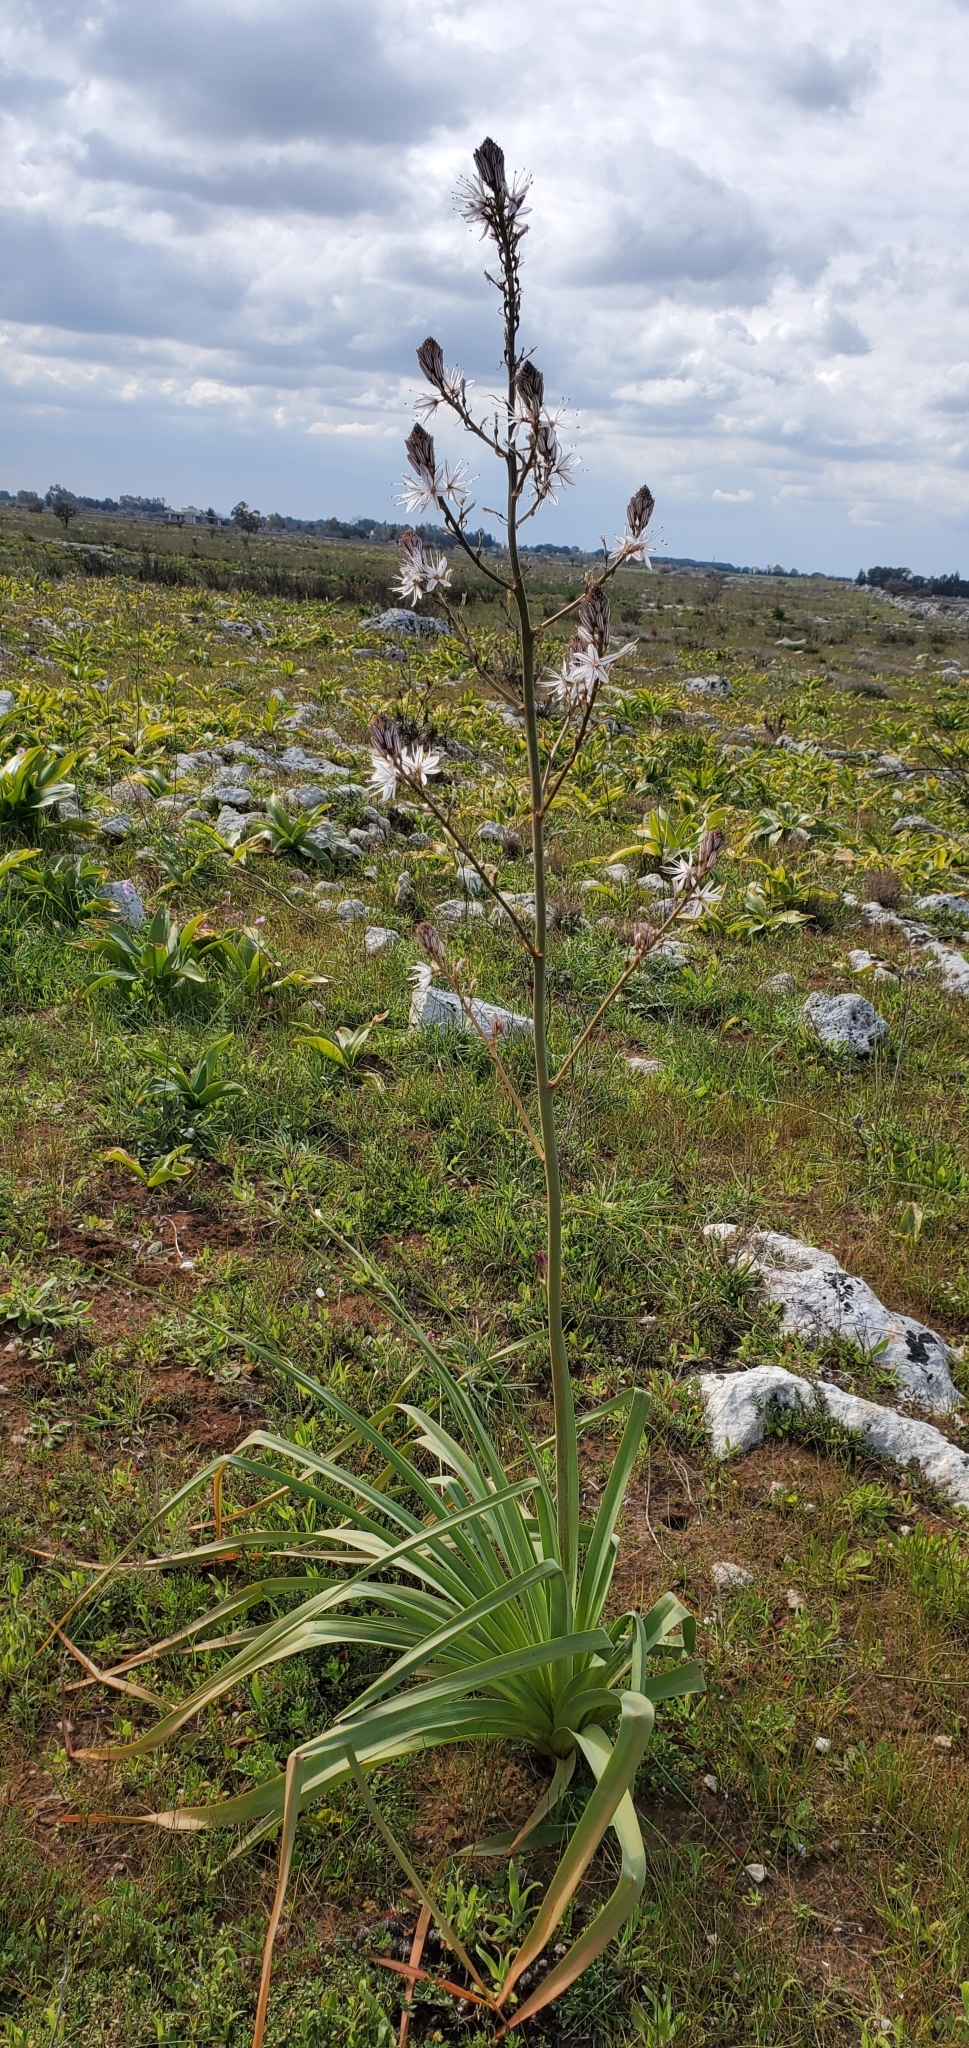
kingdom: Plantae
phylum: Tracheophyta
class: Liliopsida
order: Asparagales
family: Asphodelaceae
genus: Asphodelus
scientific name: Asphodelus ramosus
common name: Silverrod
